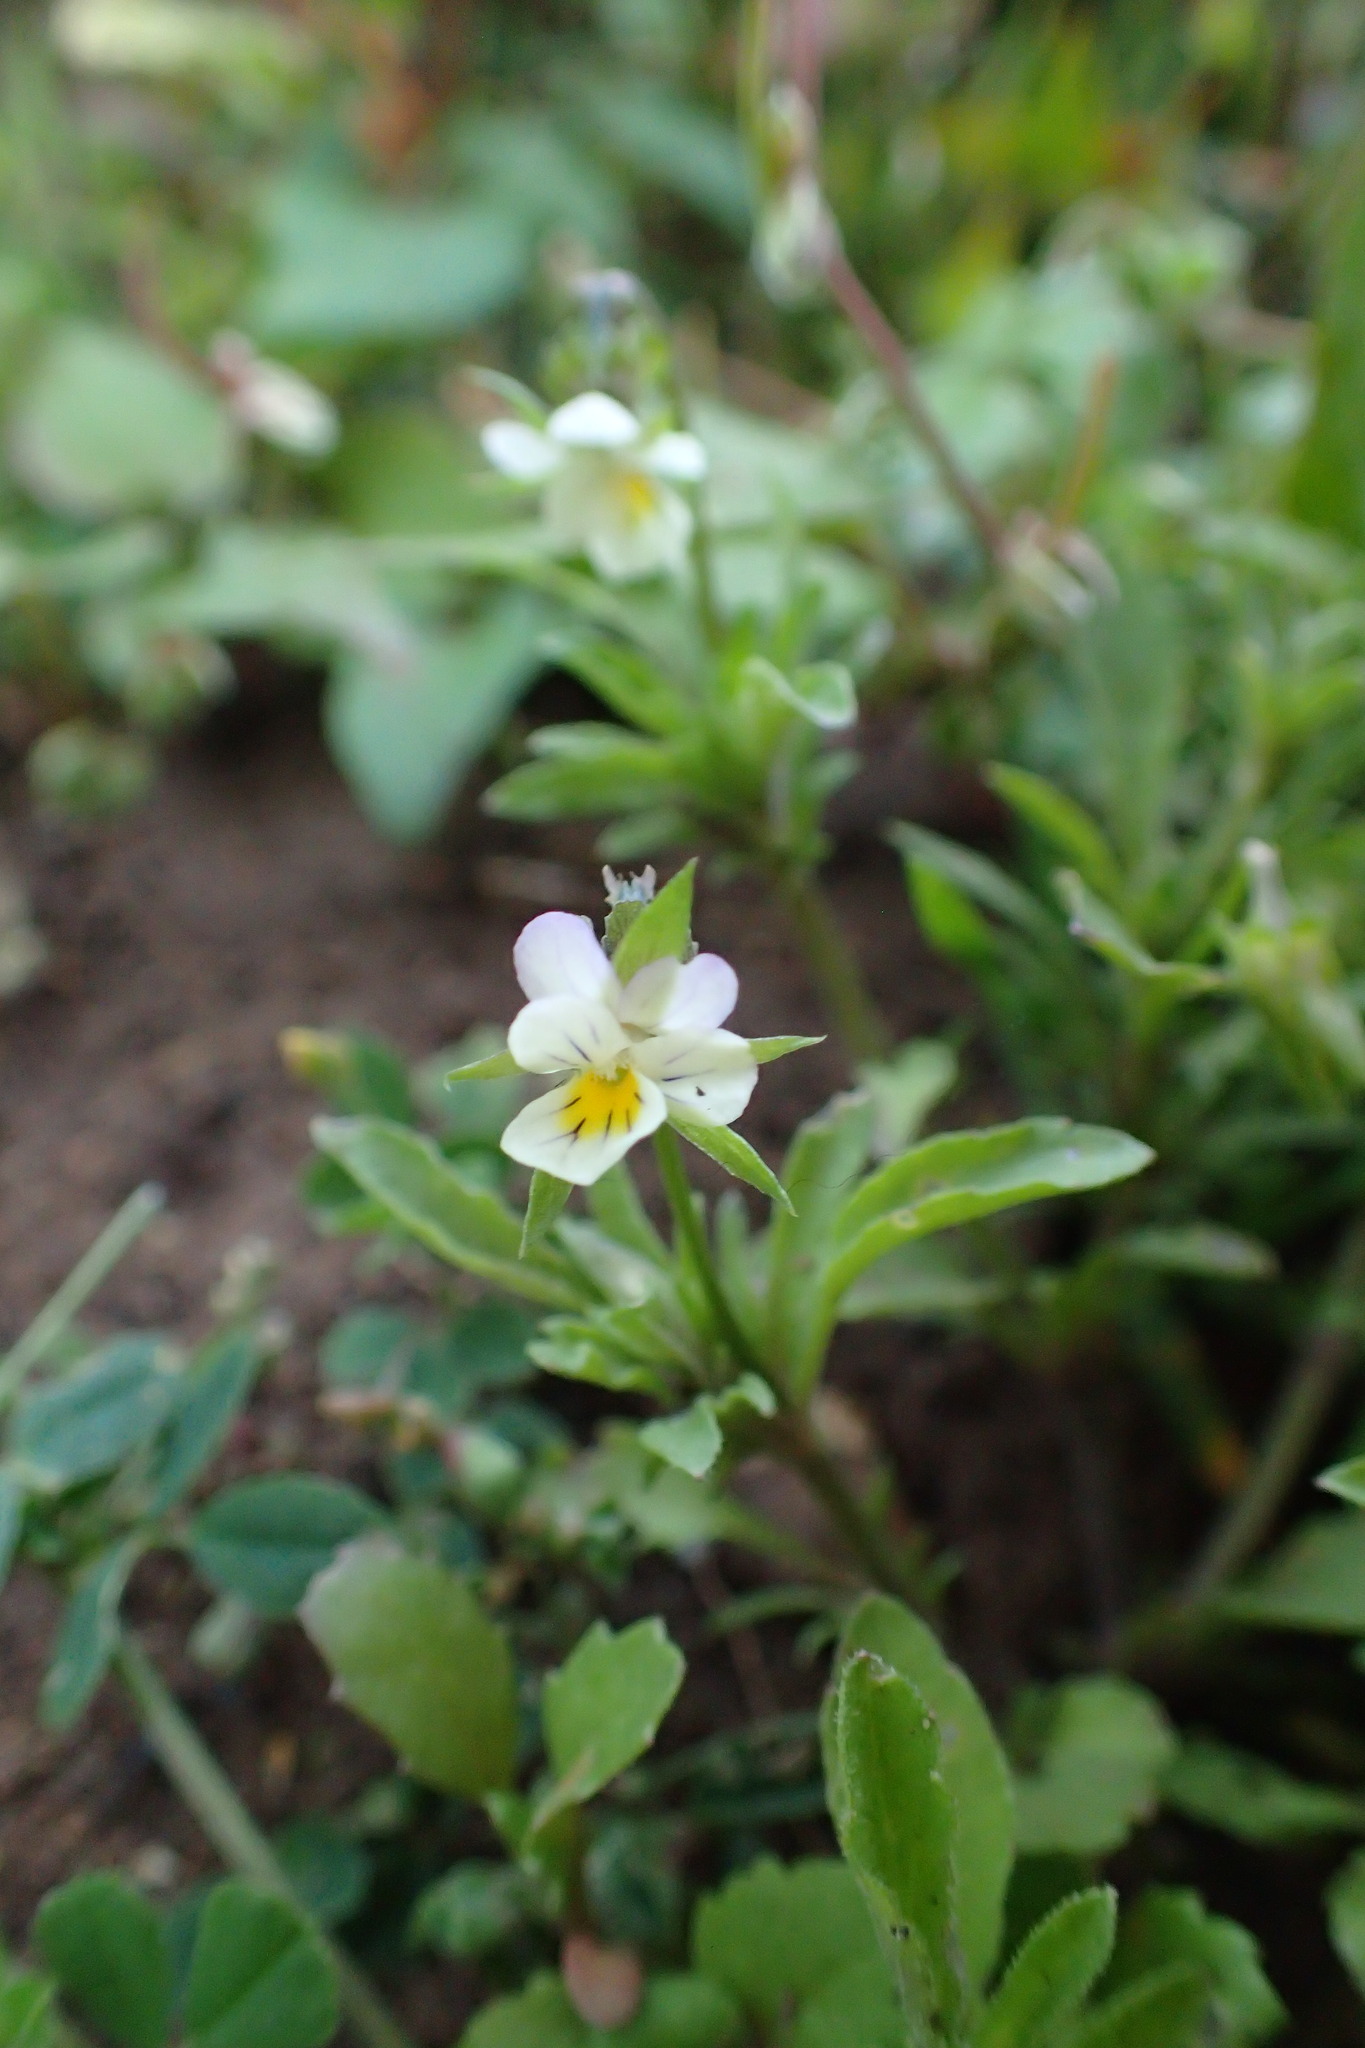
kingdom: Plantae
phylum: Tracheophyta
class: Magnoliopsida
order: Malpighiales
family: Violaceae
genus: Viola
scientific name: Viola arvensis
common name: Field pansy
